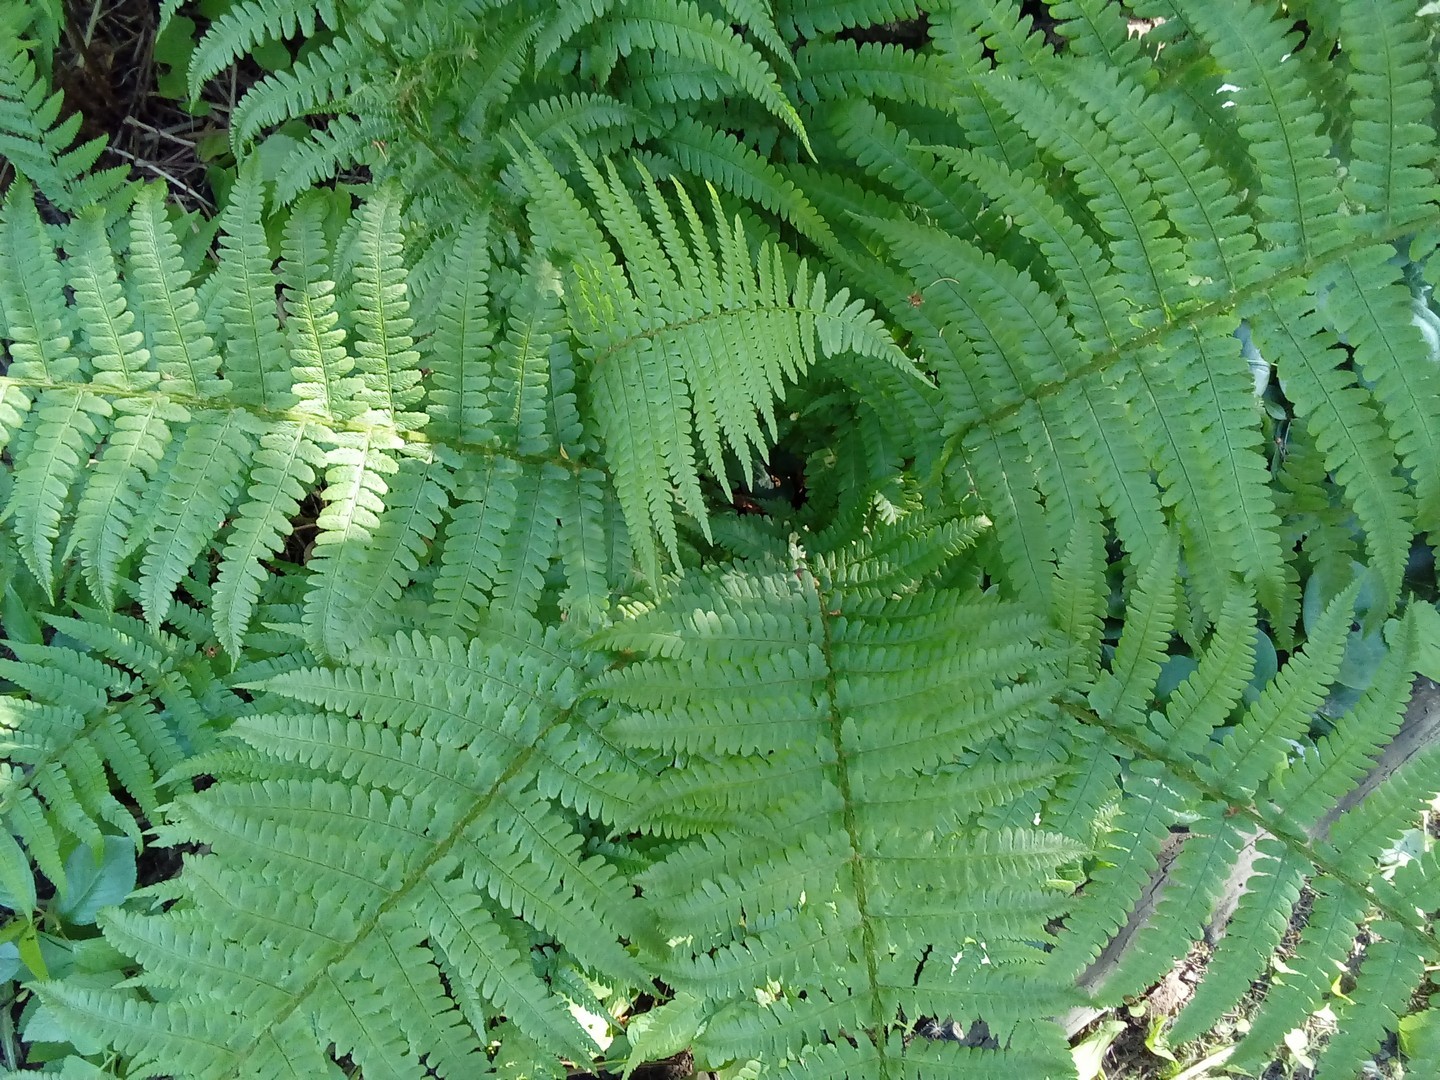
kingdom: Plantae
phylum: Tracheophyta
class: Polypodiopsida
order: Polypodiales
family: Dryopteridaceae
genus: Dryopteris
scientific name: Dryopteris filix-mas
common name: Male fern
